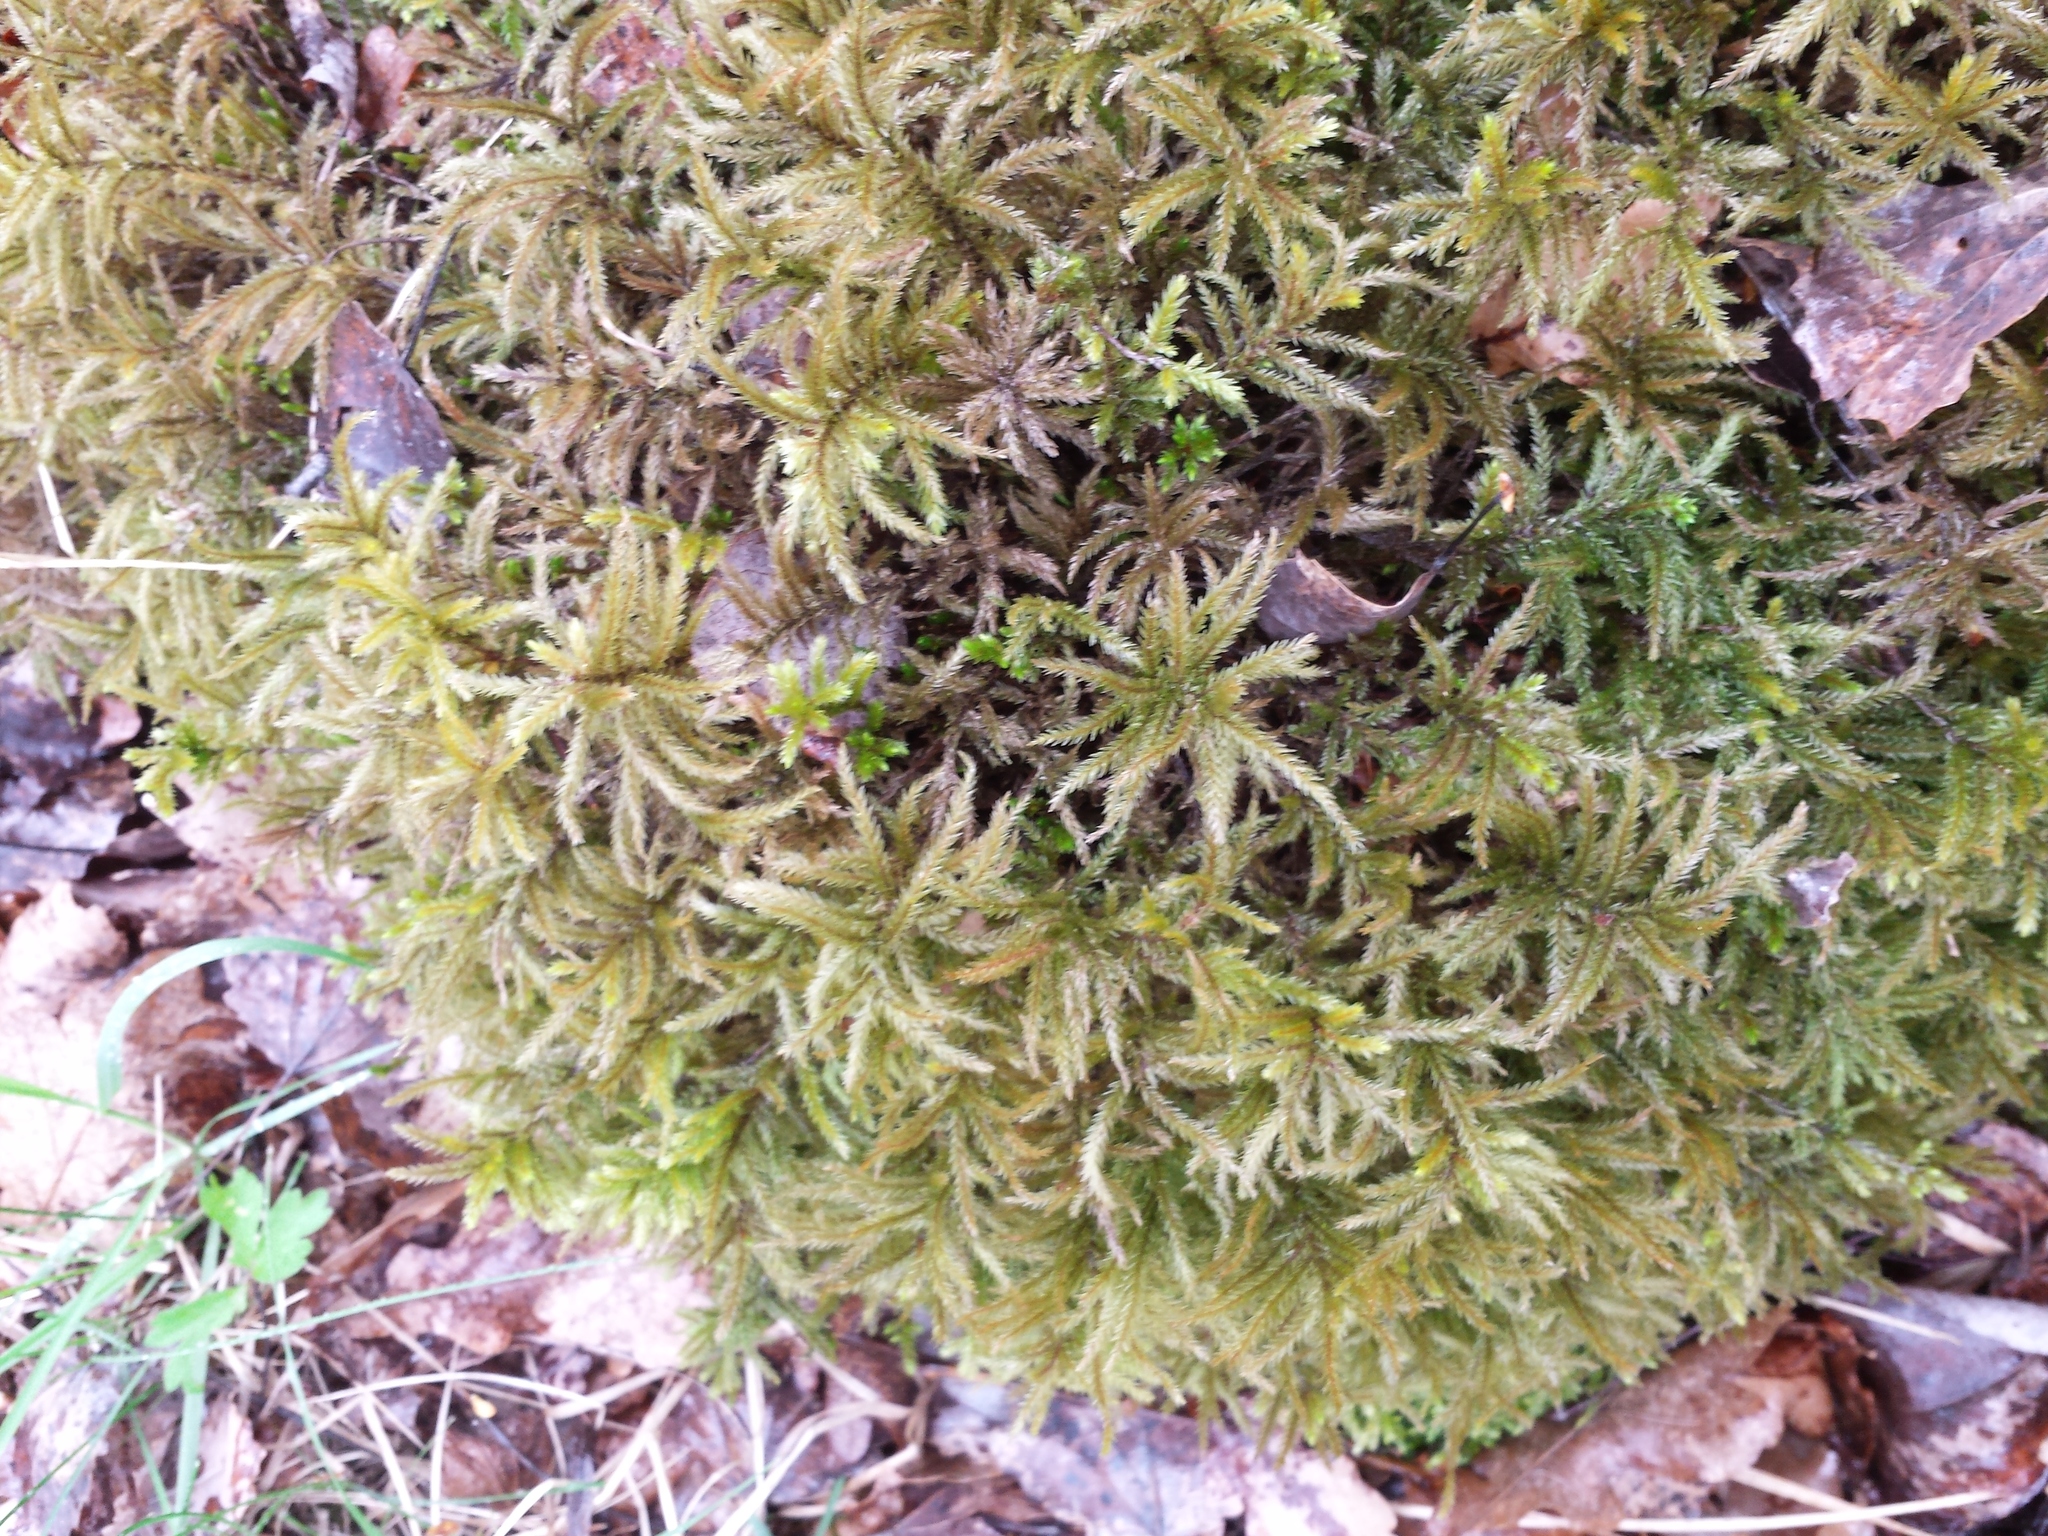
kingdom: Plantae
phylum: Bryophyta
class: Bryopsida
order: Hypnales
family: Climaciaceae
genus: Climacium
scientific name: Climacium dendroides
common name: Northern tree moss
